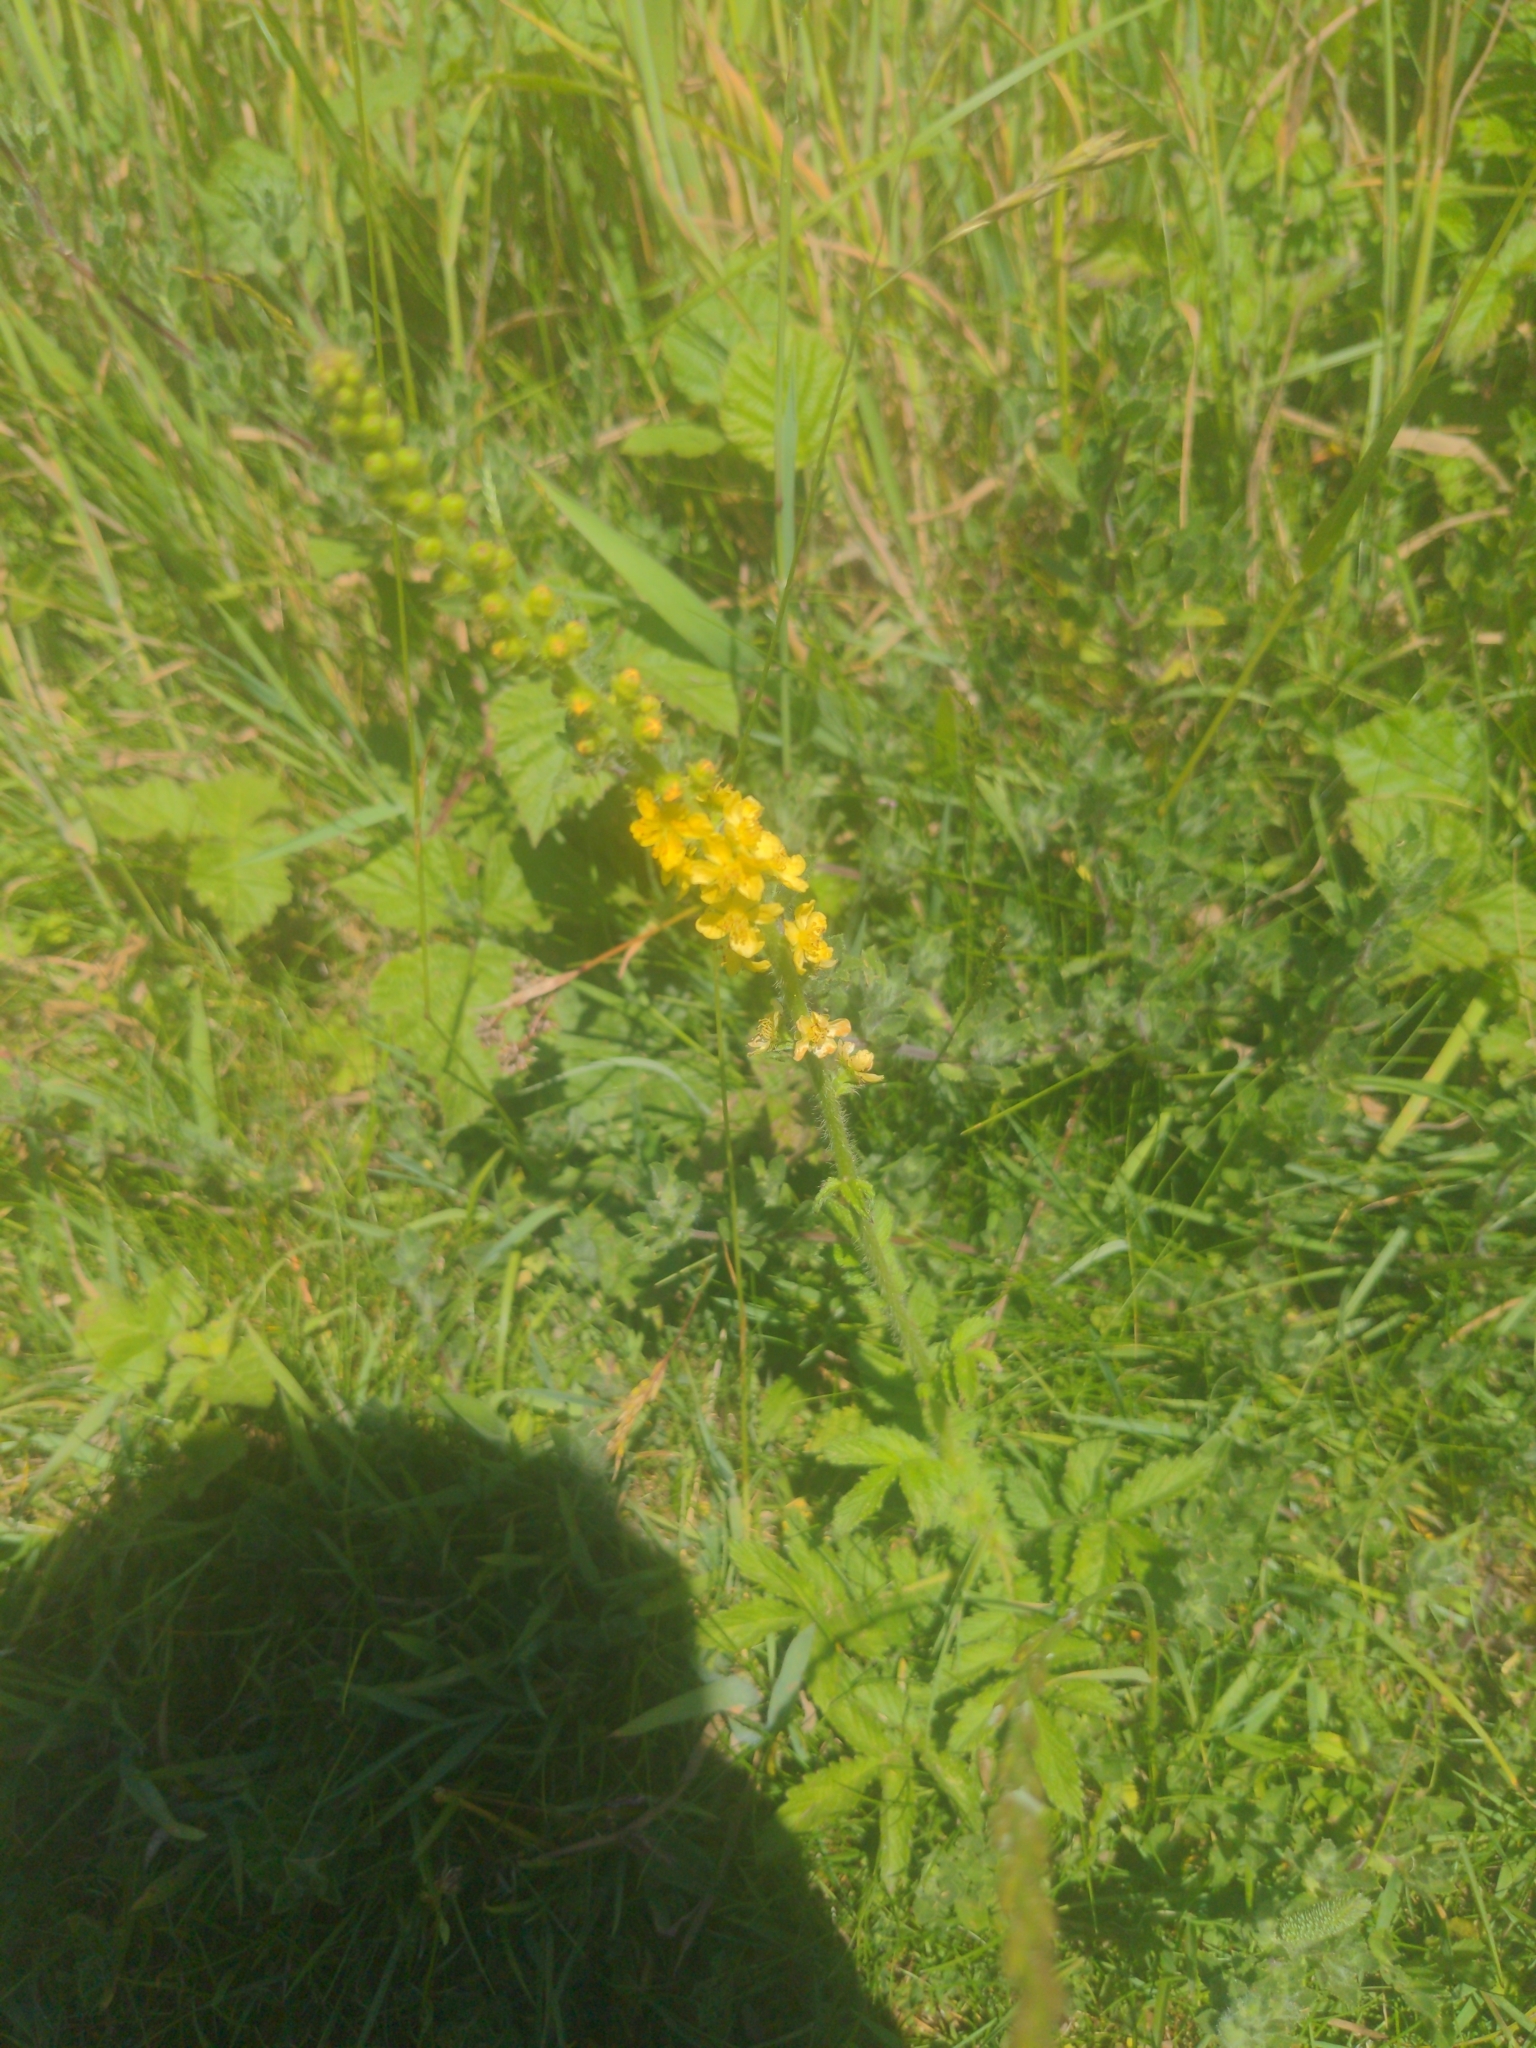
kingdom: Plantae
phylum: Tracheophyta
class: Magnoliopsida
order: Rosales
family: Rosaceae
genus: Agrimonia
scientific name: Agrimonia eupatoria
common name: Agrimony
